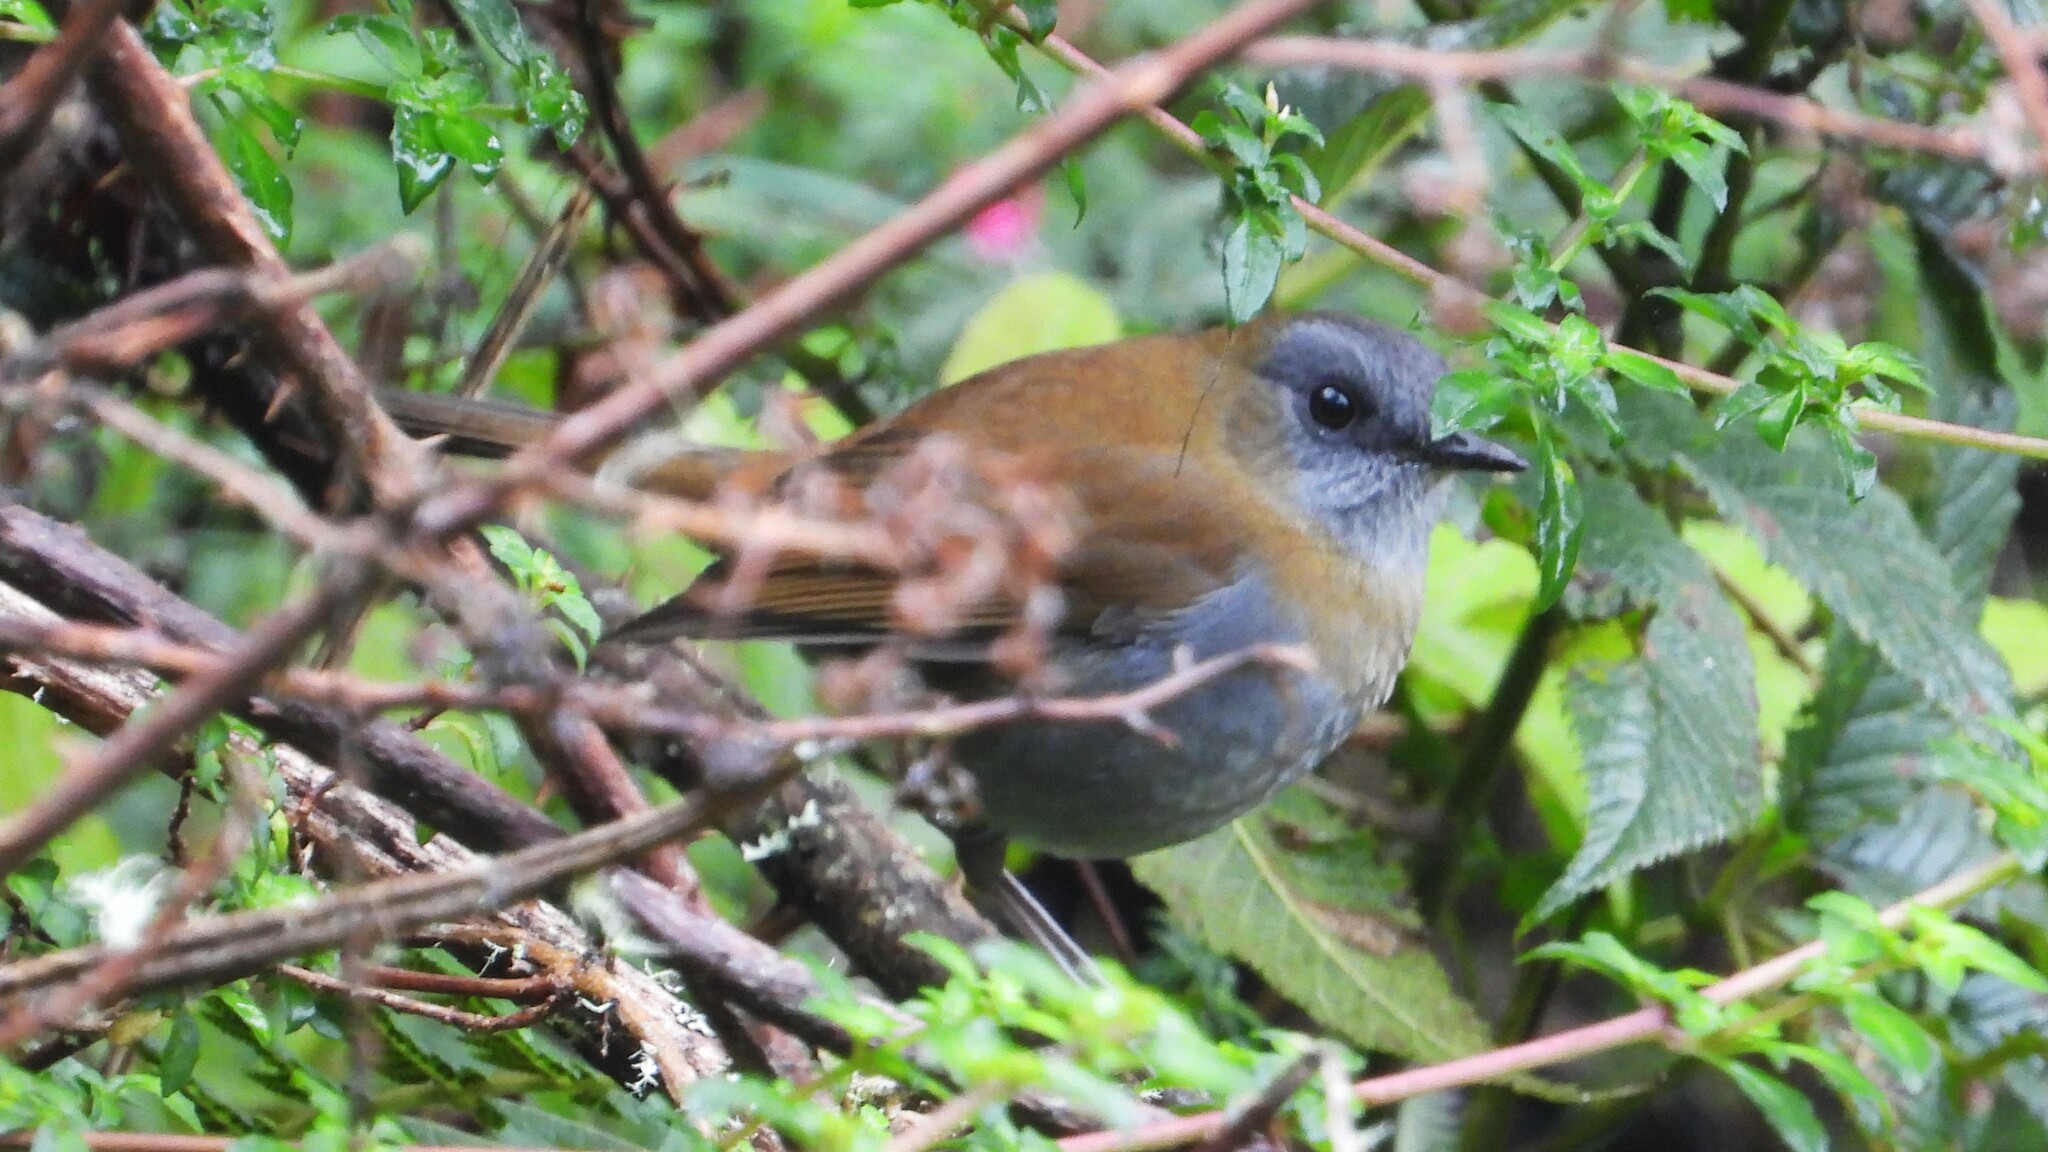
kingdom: Animalia
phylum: Chordata
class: Aves
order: Passeriformes
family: Turdidae
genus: Catharus
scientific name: Catharus gracilirostris
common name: Black-billed nightingale-thrush
